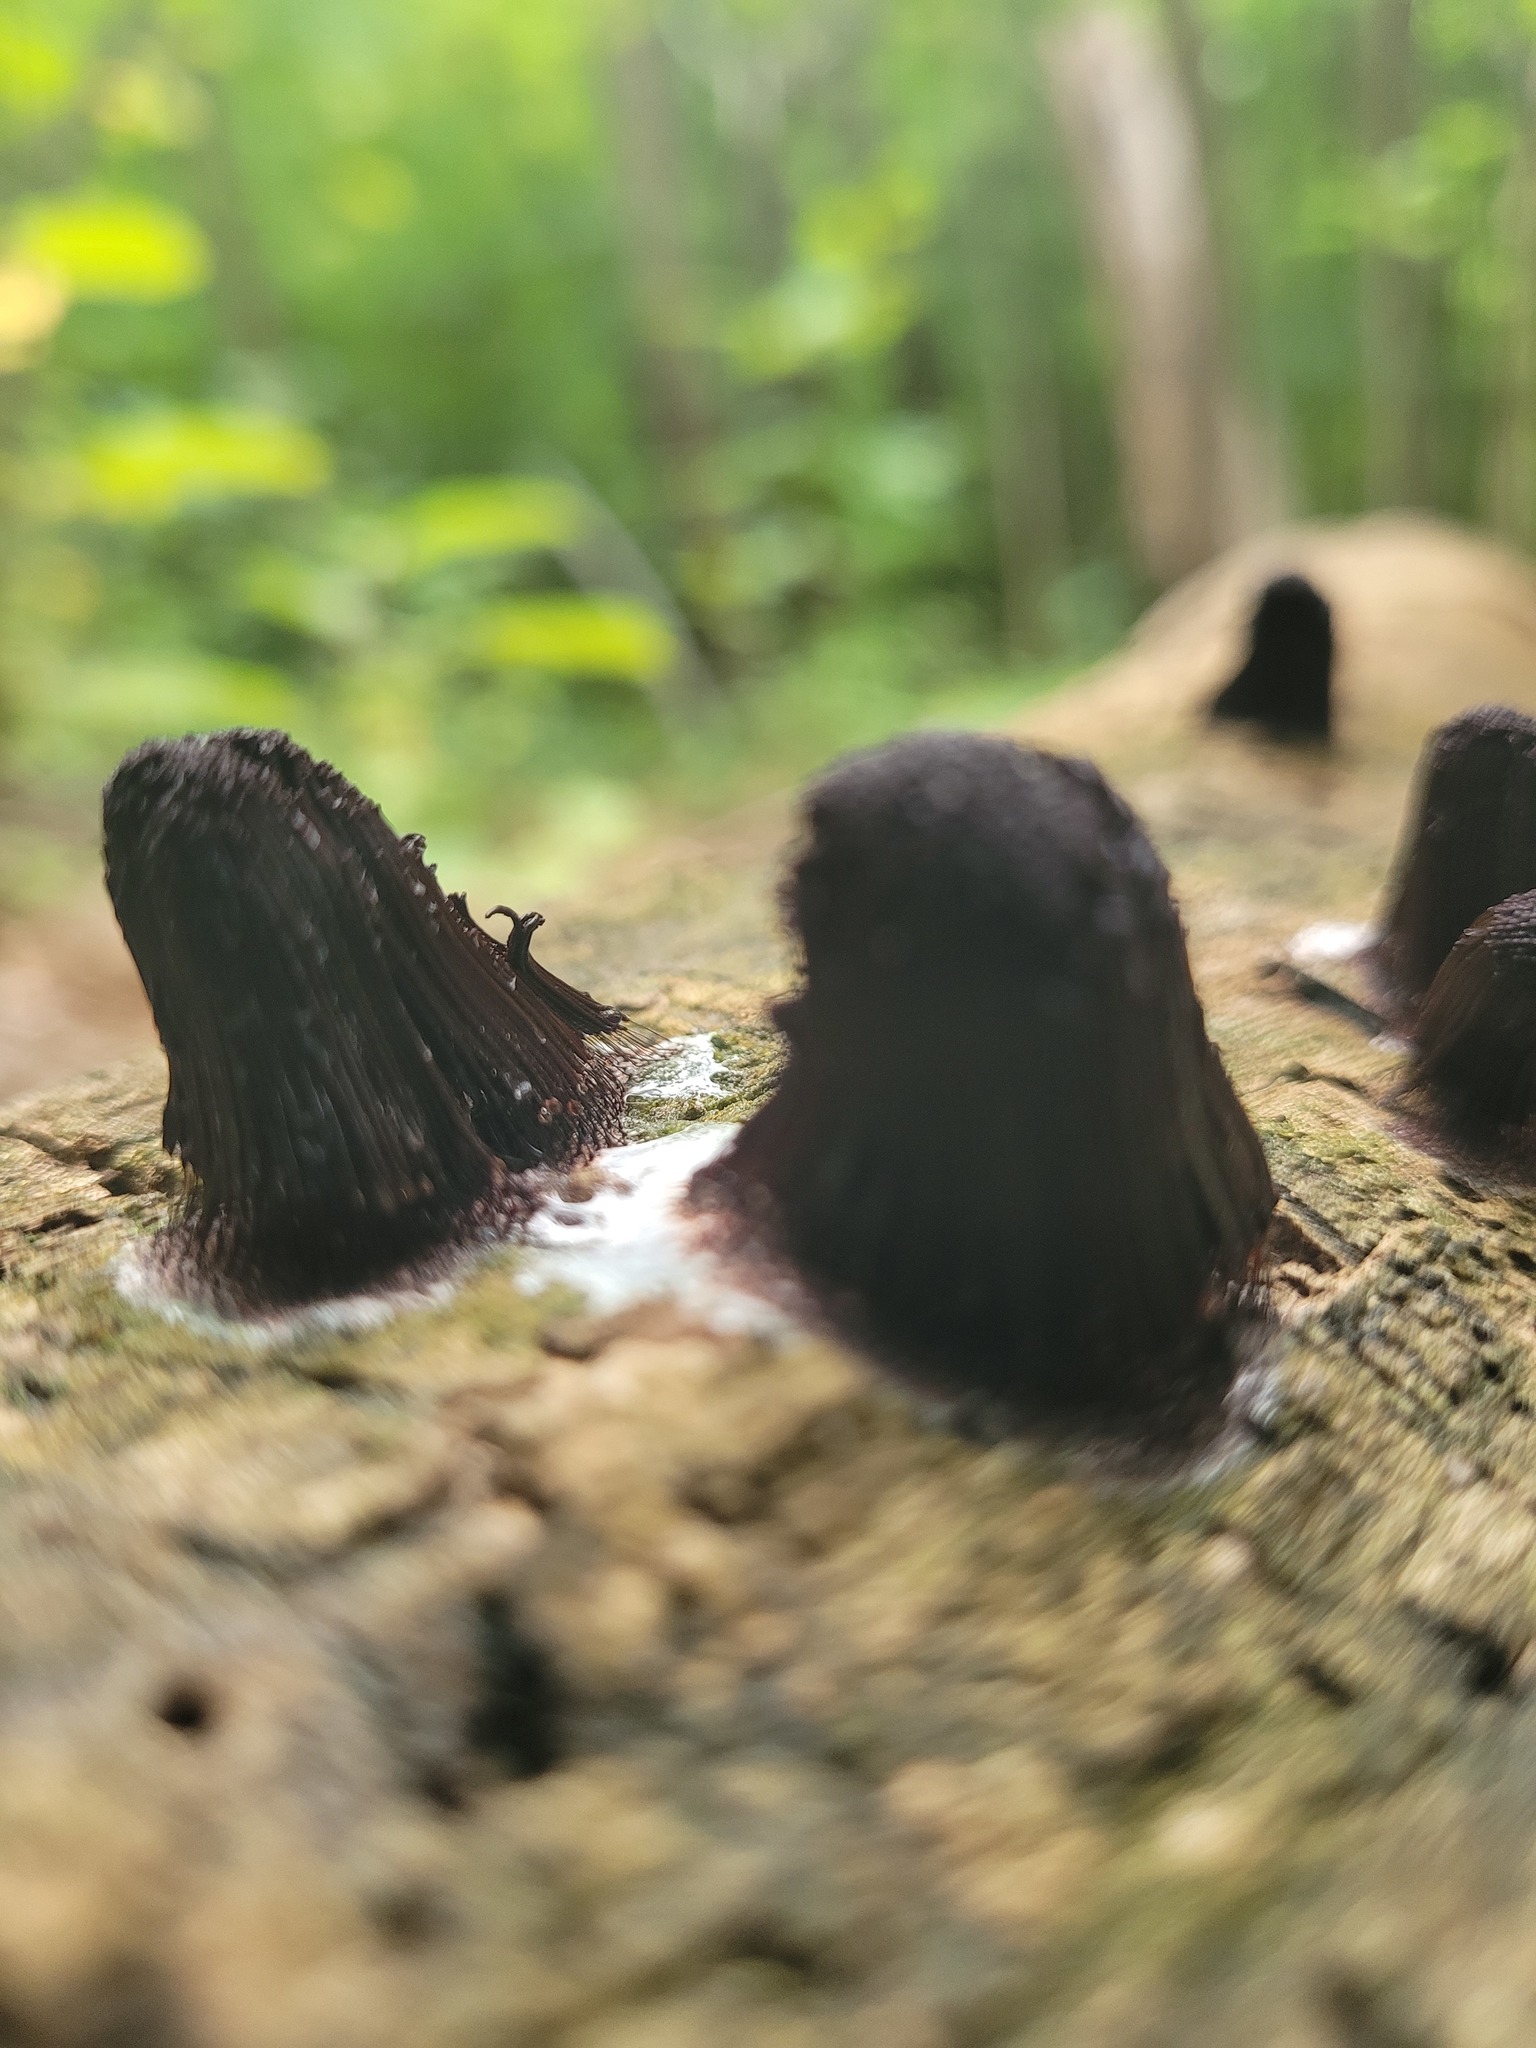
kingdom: Protozoa
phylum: Mycetozoa
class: Myxomycetes
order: Stemonitidales
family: Stemonitidaceae
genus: Stemonitis
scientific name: Stemonitis splendens
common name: Chocolate tube slime
